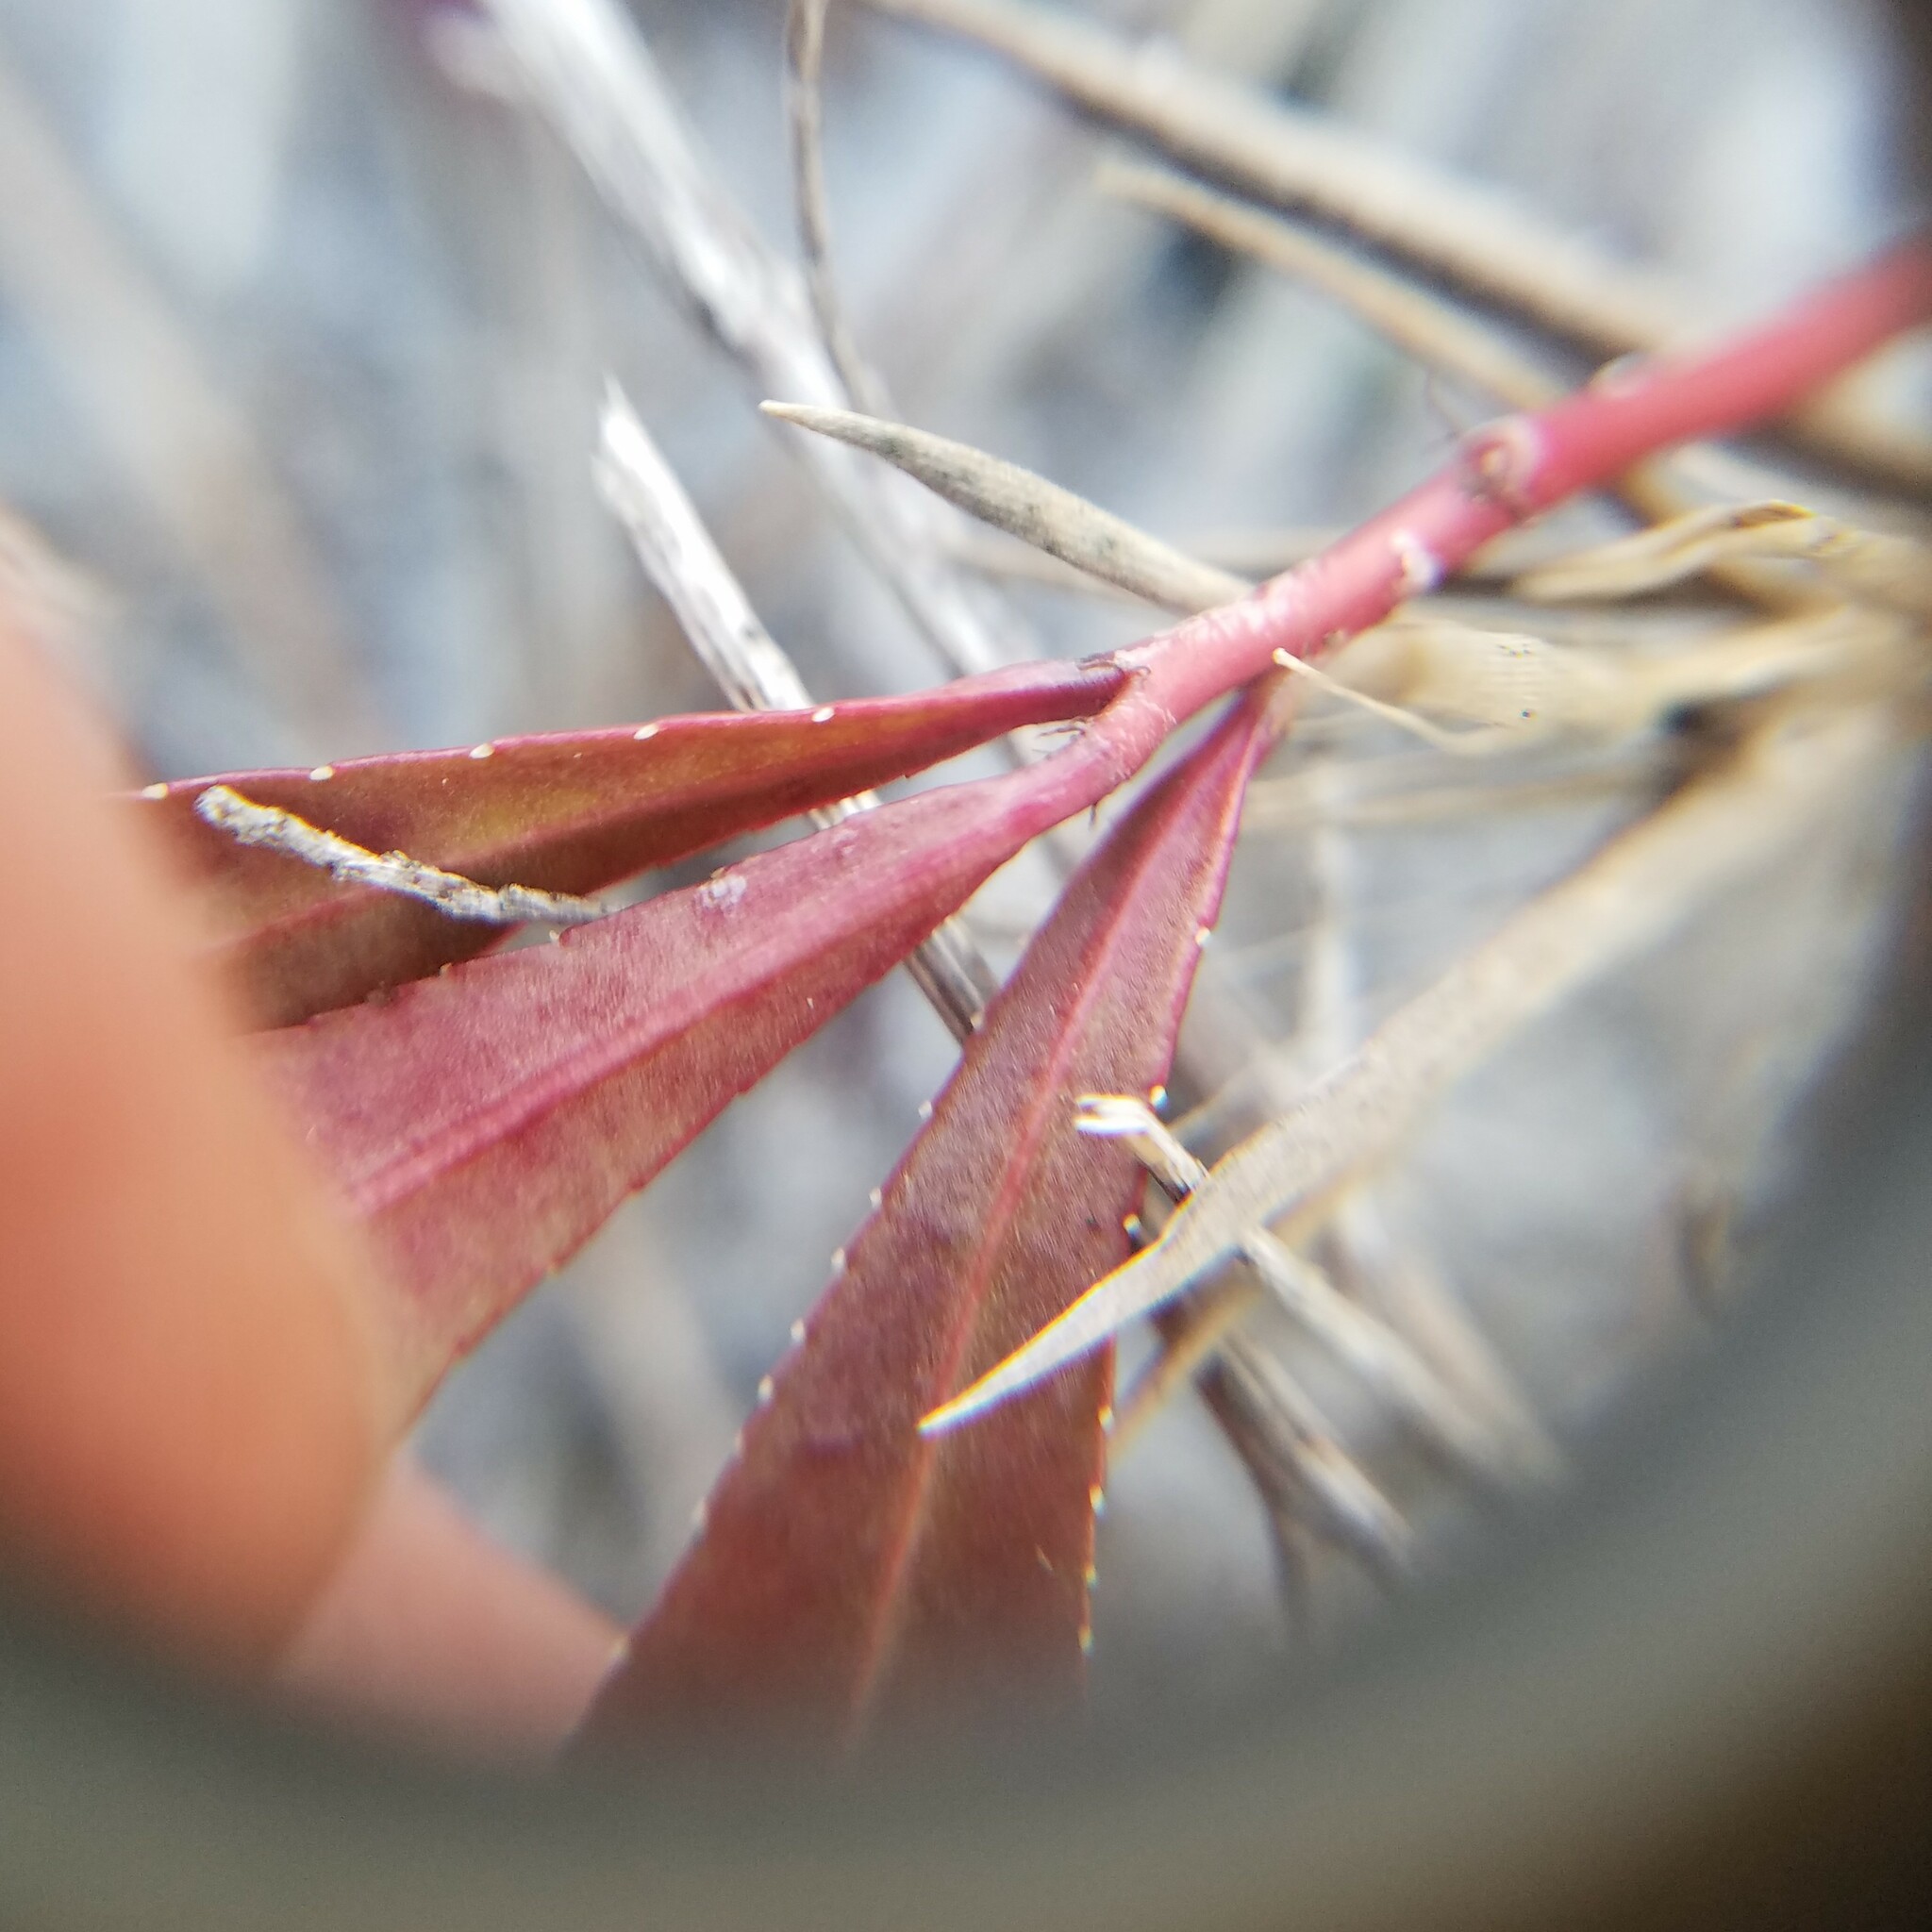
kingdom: Plantae
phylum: Tracheophyta
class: Magnoliopsida
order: Malpighiales
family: Euphorbiaceae
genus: Stillingia
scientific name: Stillingia sylvatica
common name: Queen's-delight
